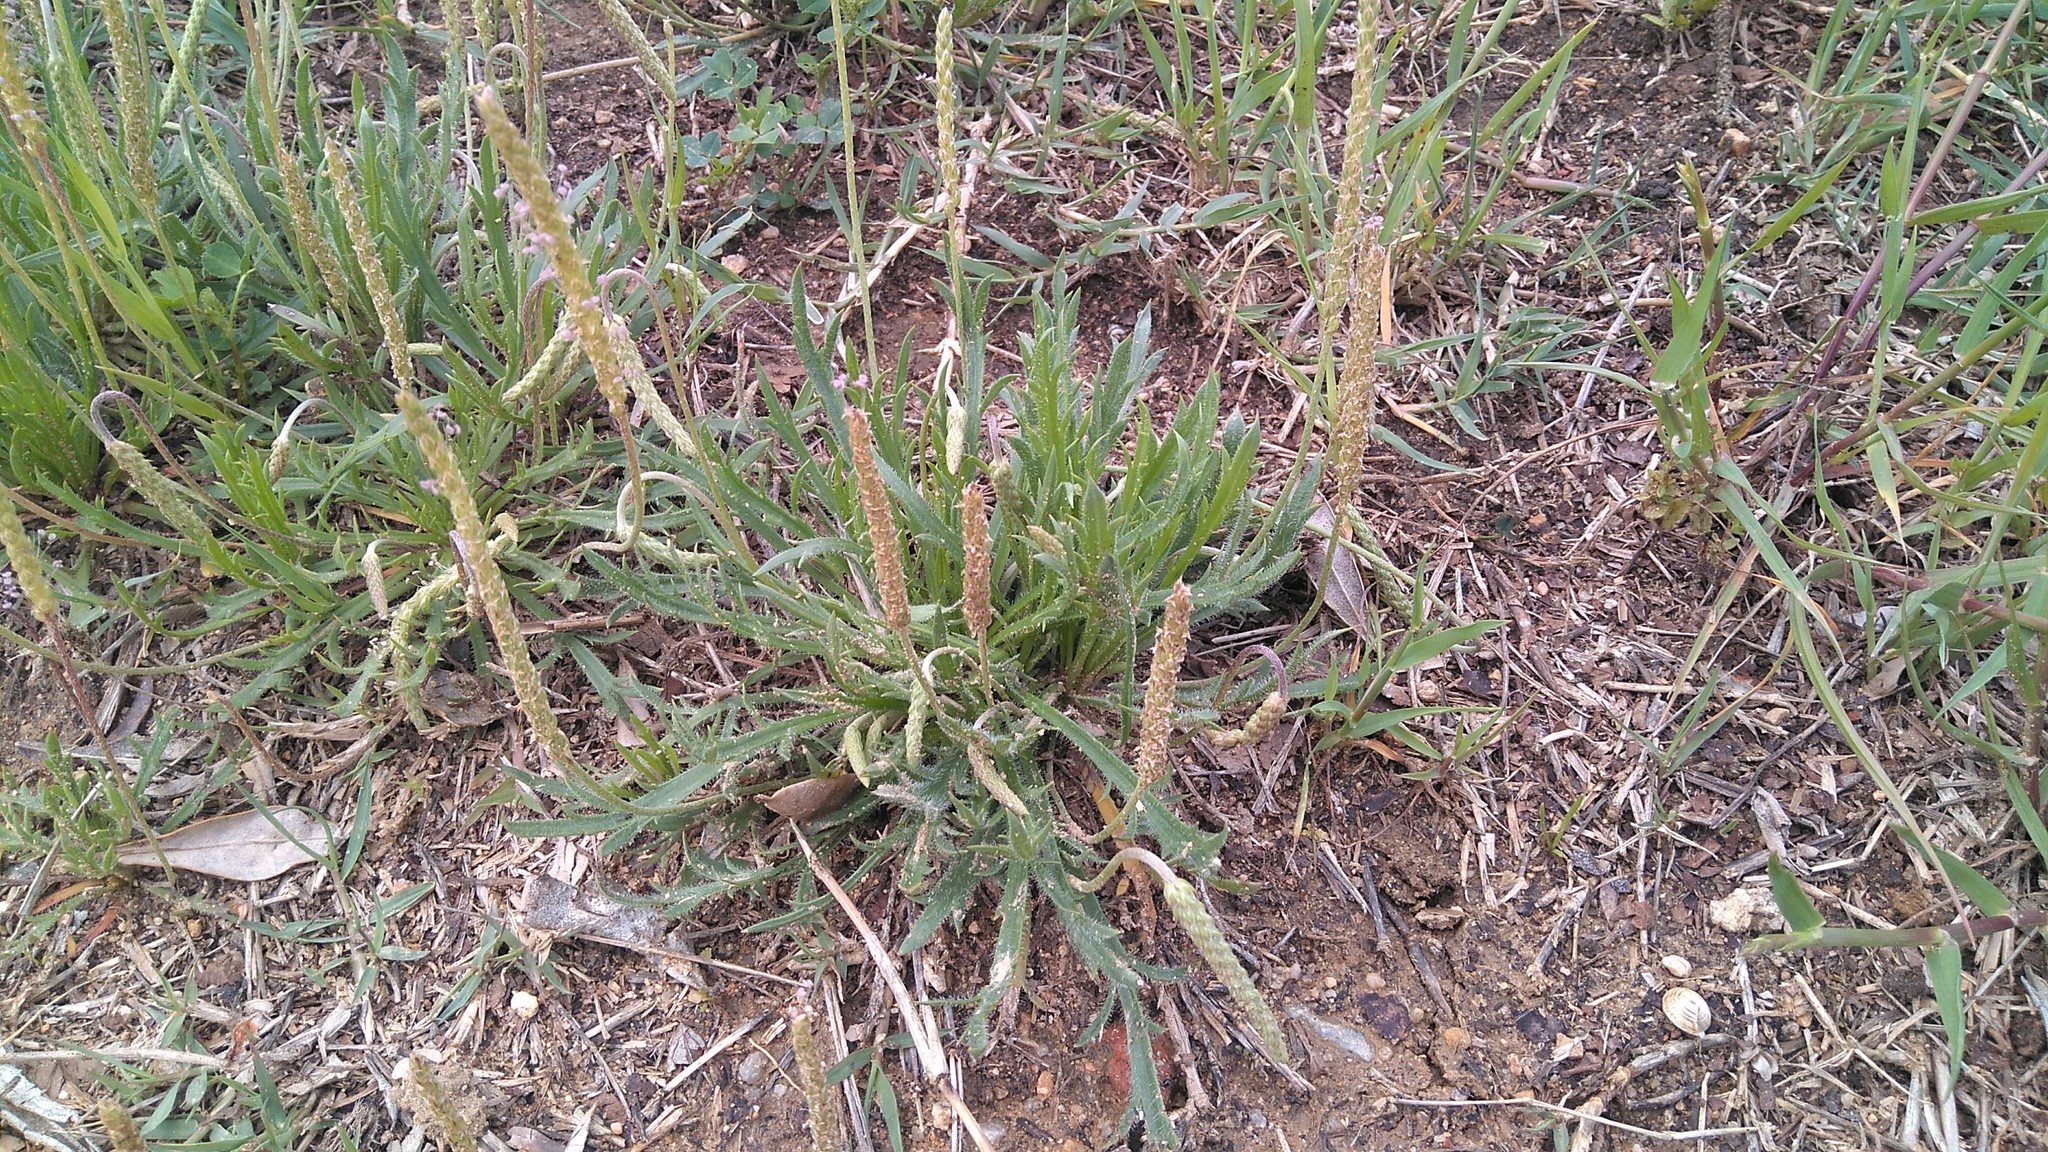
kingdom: Plantae
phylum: Tracheophyta
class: Magnoliopsida
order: Lamiales
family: Plantaginaceae
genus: Plantago
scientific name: Plantago coronopus
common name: Buck's-horn plantain
